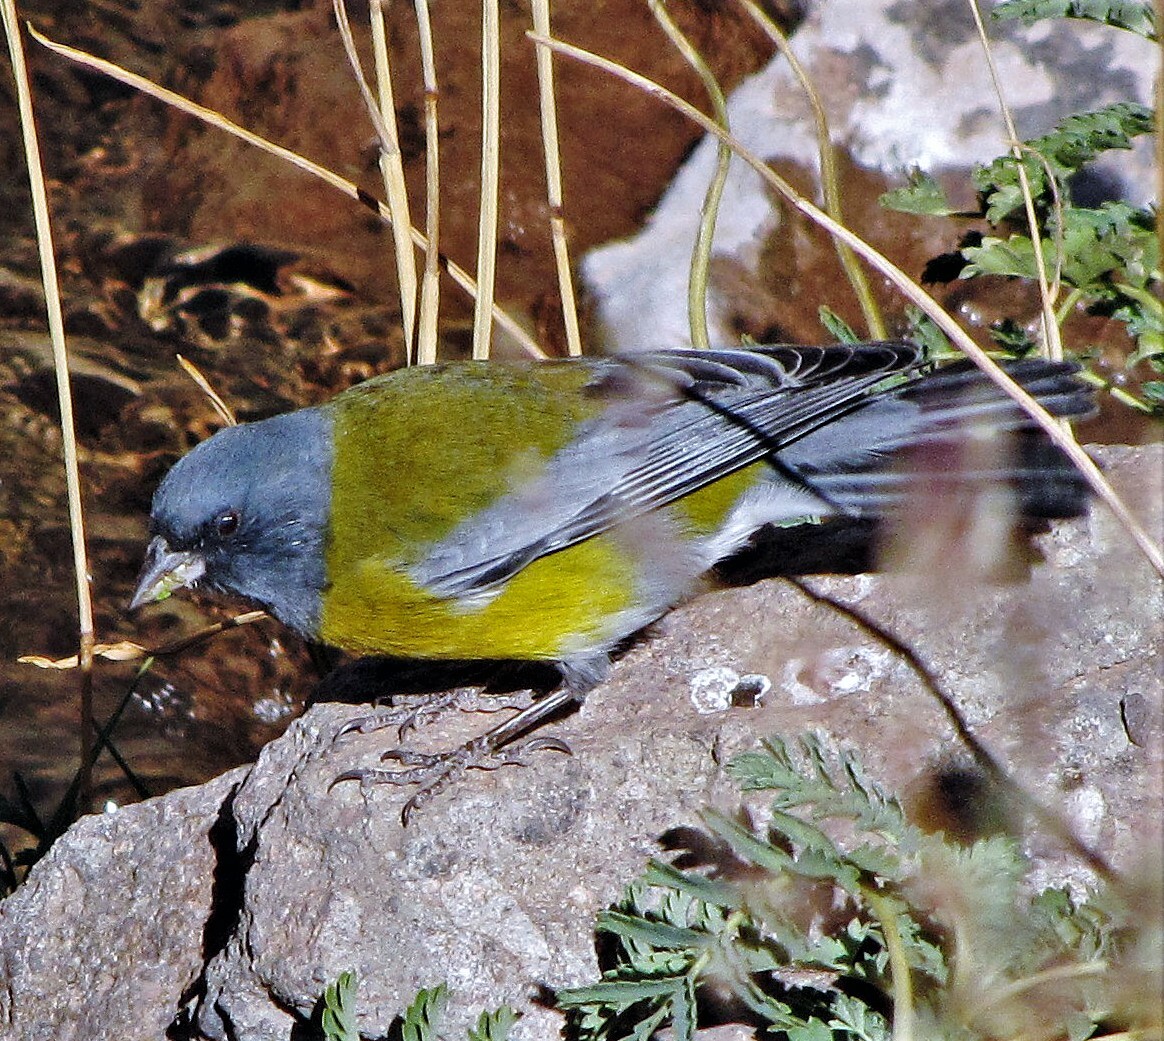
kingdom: Animalia
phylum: Chordata
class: Aves
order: Passeriformes
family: Thraupidae
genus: Phrygilus
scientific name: Phrygilus gayi
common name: Grey-hooded sierra finch
